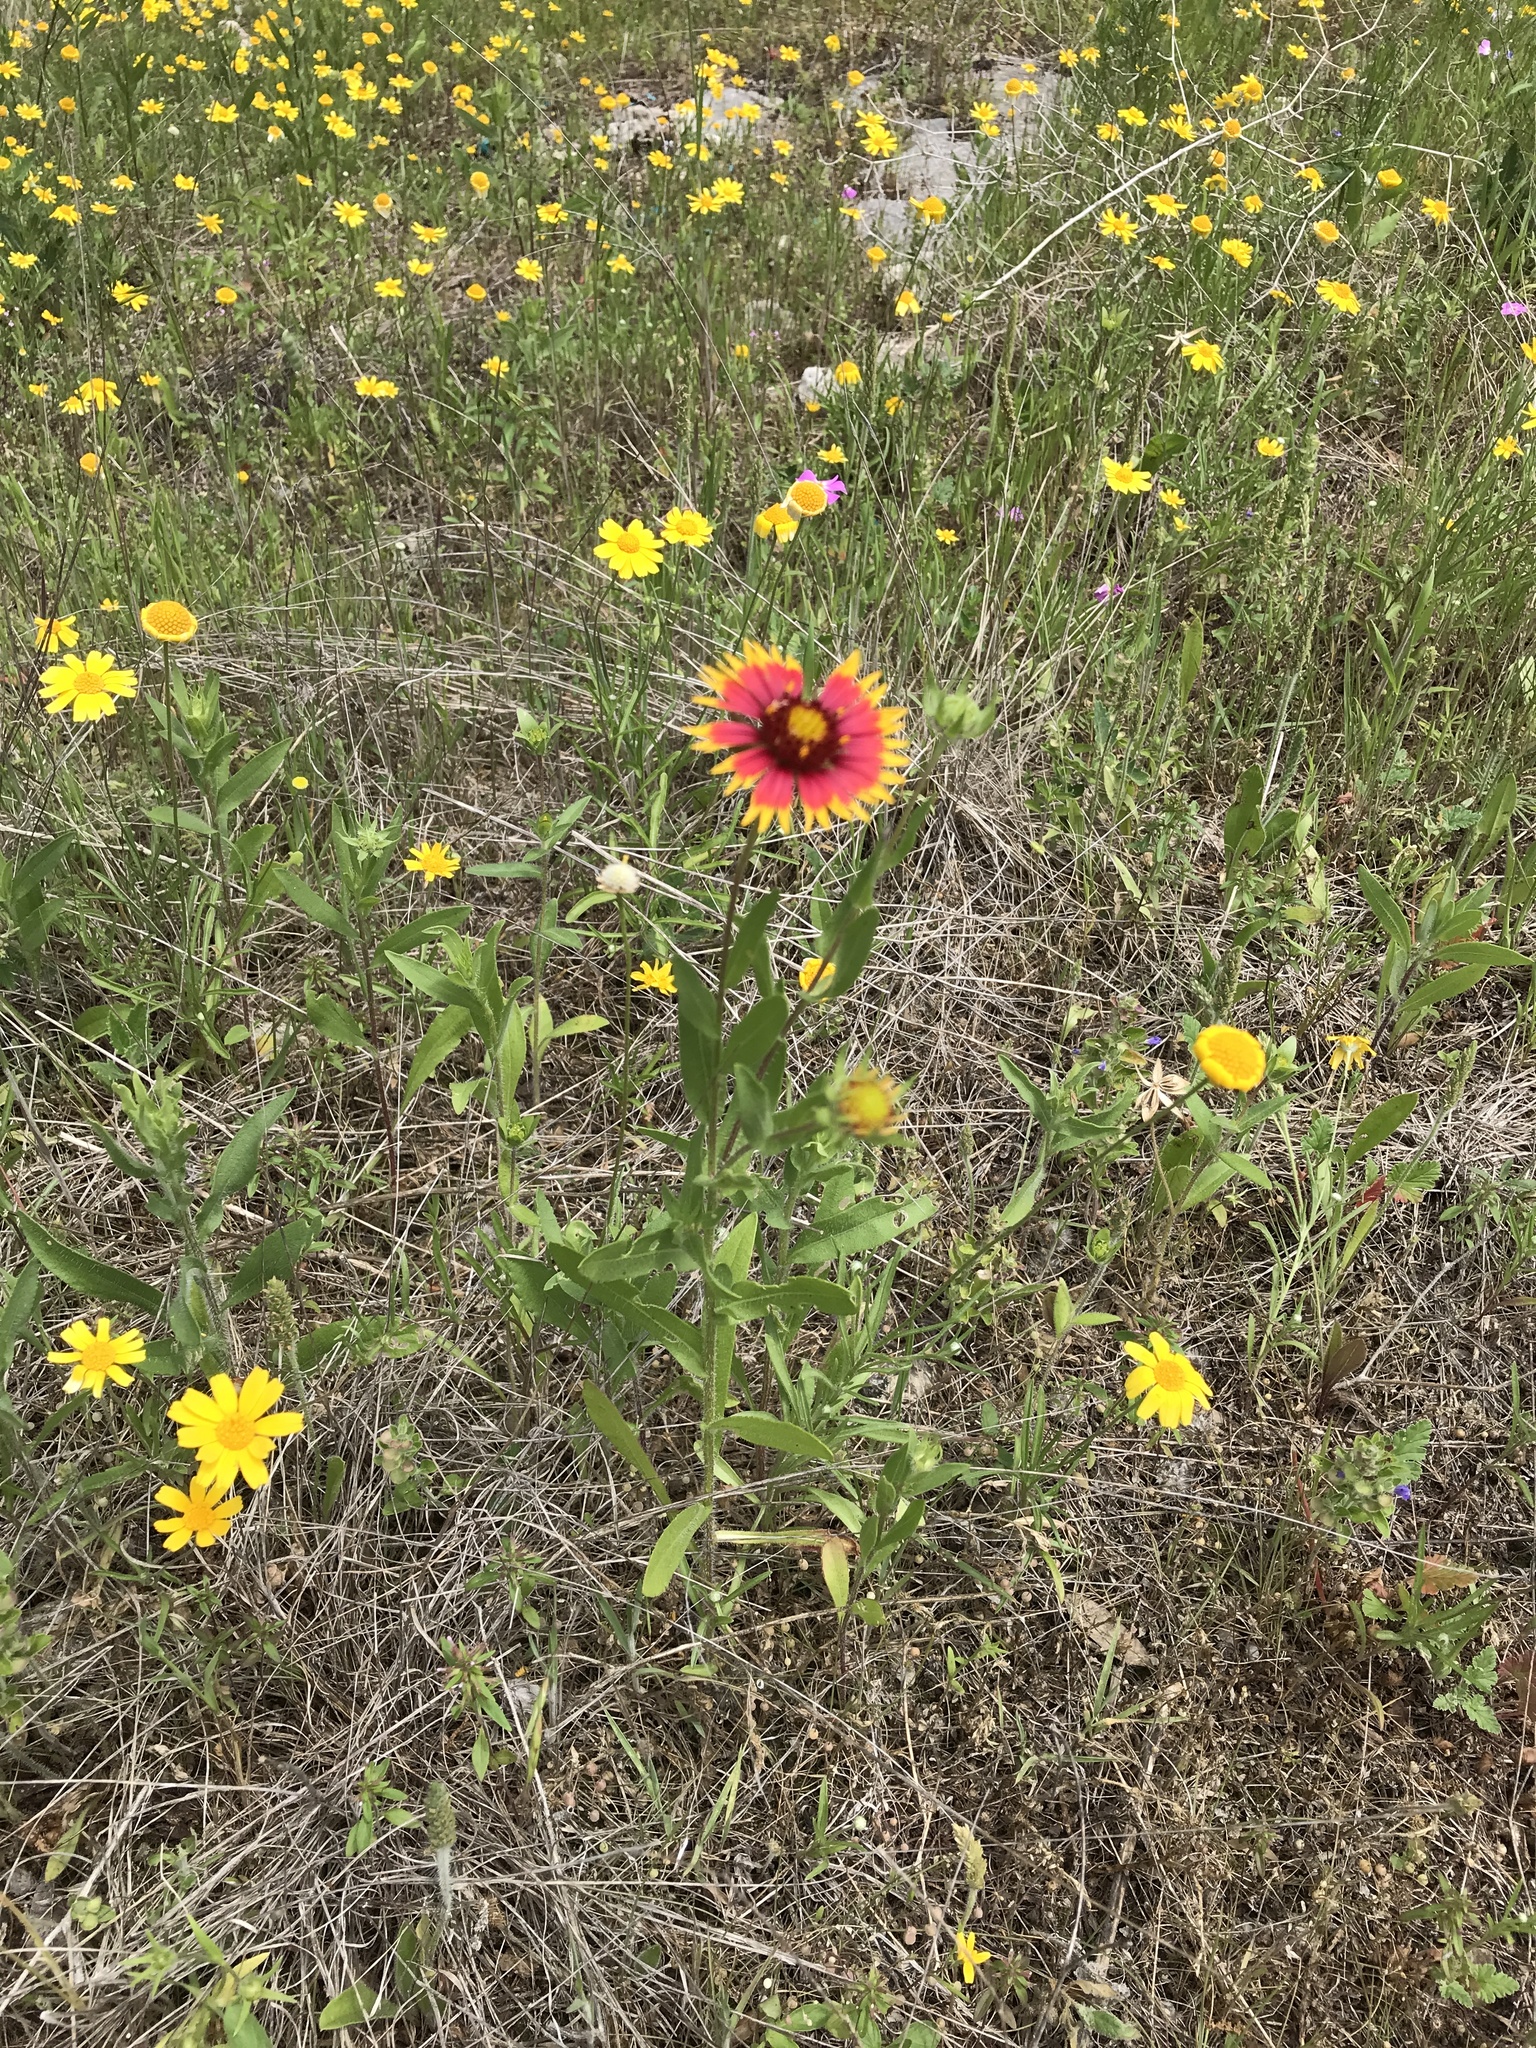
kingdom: Plantae
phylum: Tracheophyta
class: Magnoliopsida
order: Asterales
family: Asteraceae
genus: Gaillardia
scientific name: Gaillardia pulchella
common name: Firewheel
